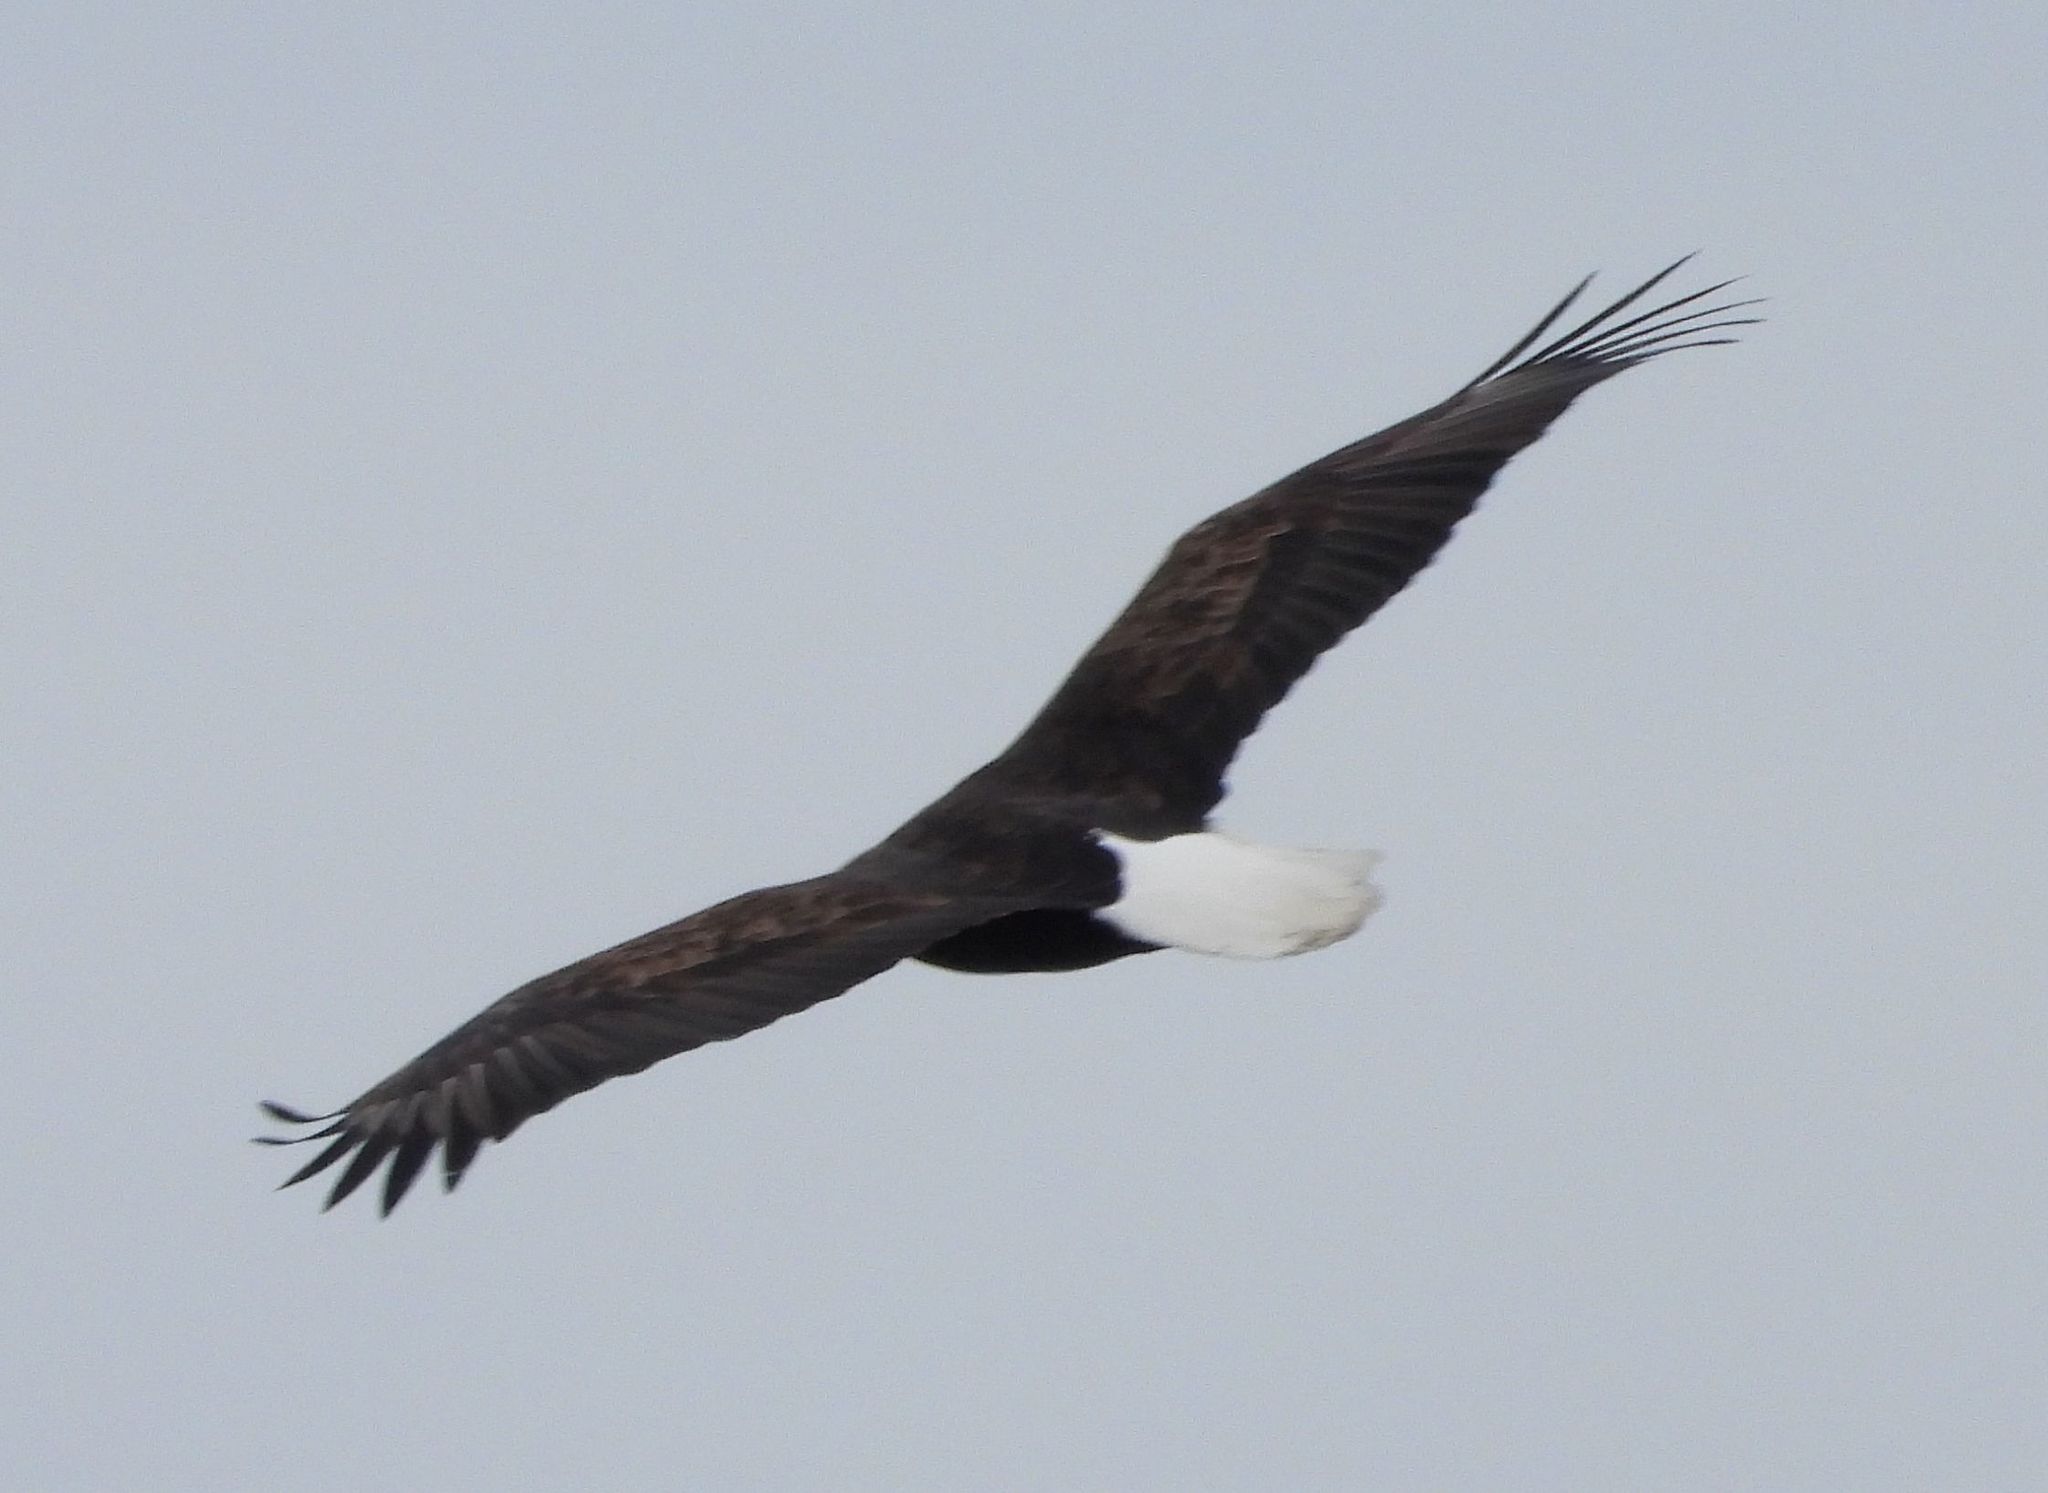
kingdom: Animalia
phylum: Chordata
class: Aves
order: Accipitriformes
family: Accipitridae
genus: Haliaeetus
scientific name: Haliaeetus leucocephalus
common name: Bald eagle
